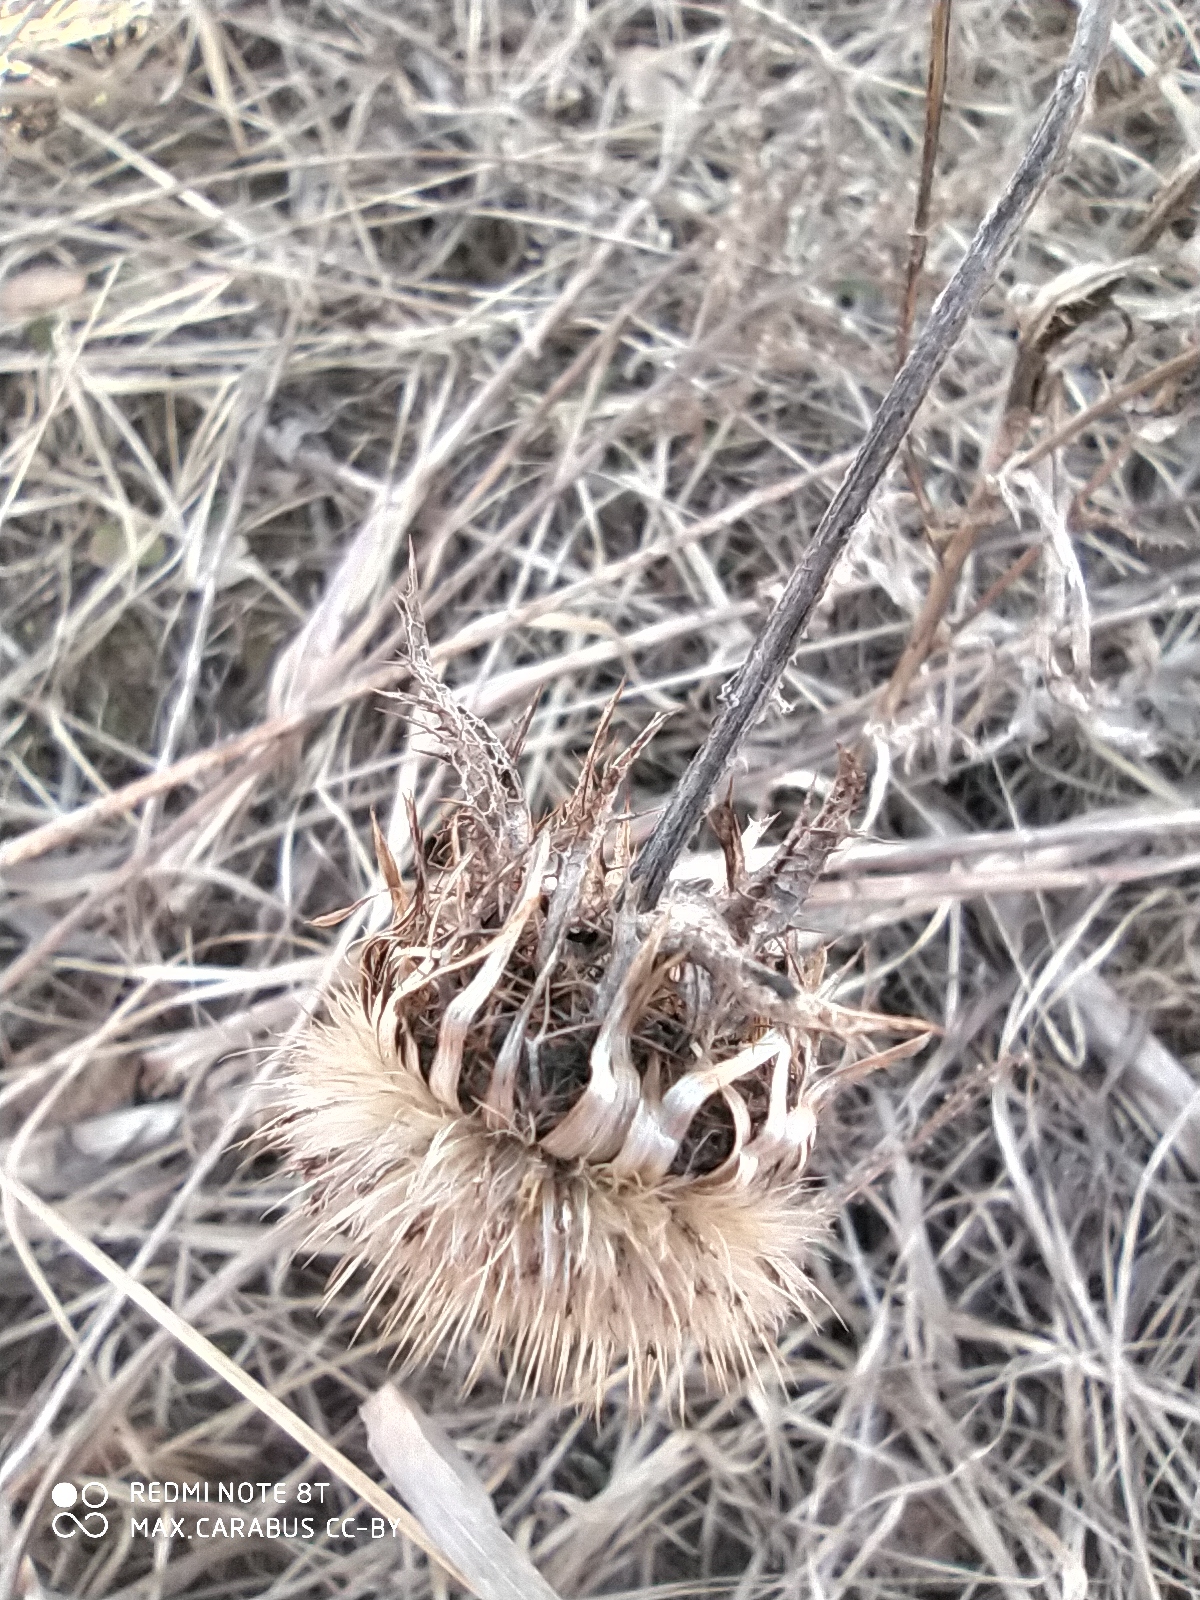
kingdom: Plantae
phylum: Tracheophyta
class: Magnoliopsida
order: Asterales
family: Asteraceae
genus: Carlina
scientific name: Carlina biebersteinii
